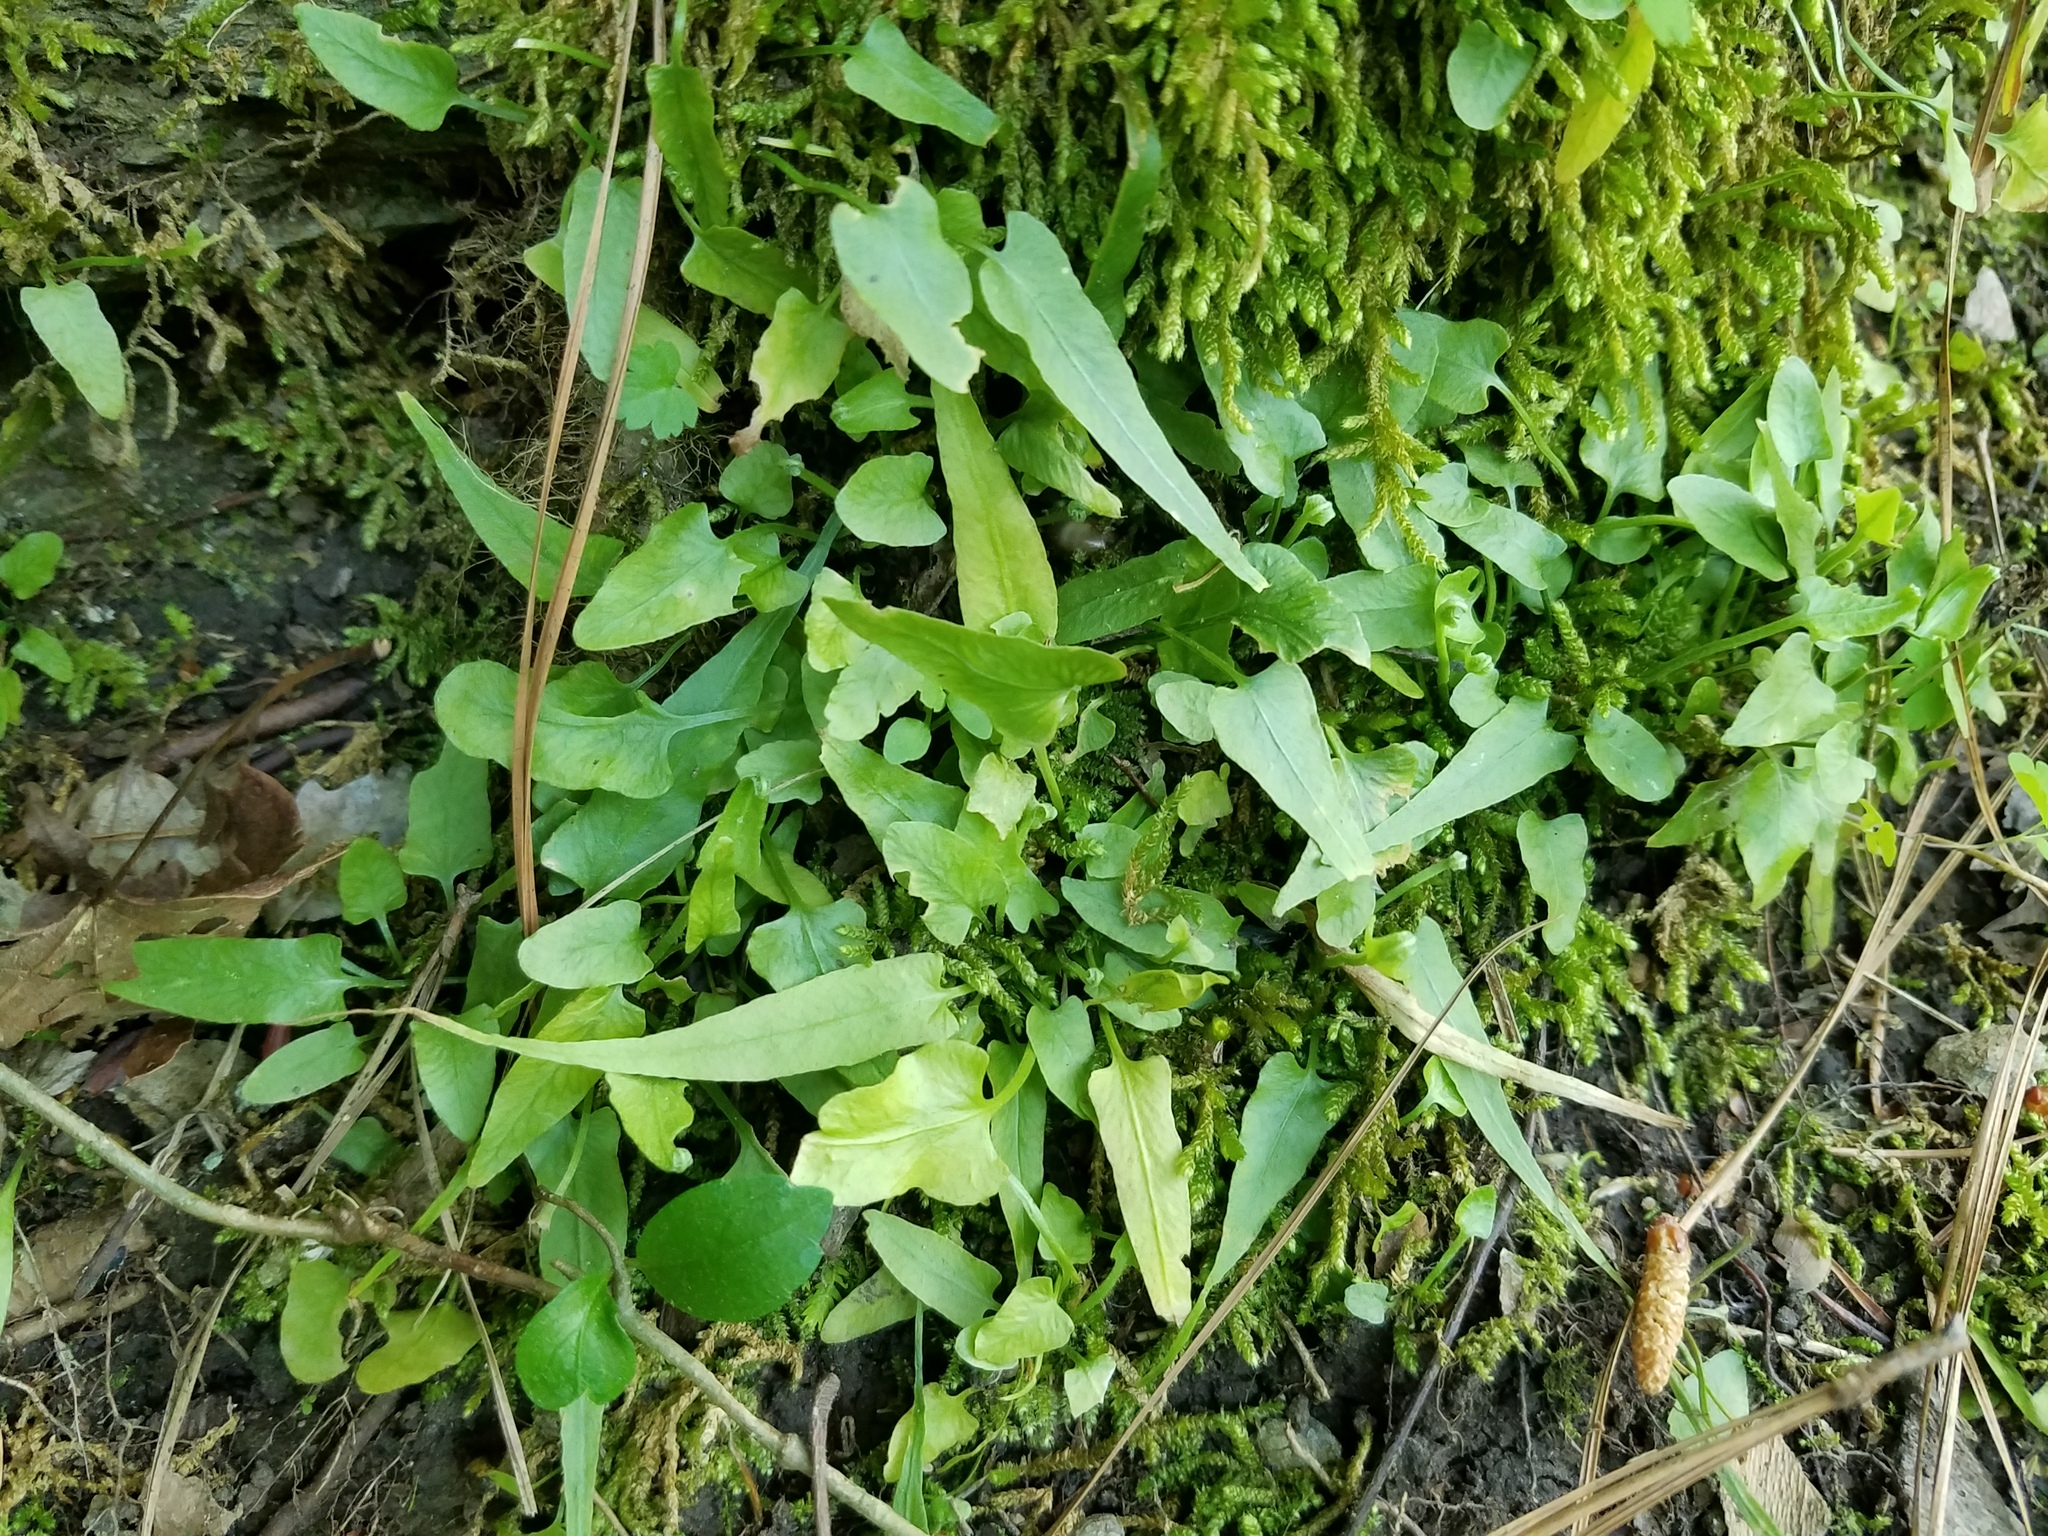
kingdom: Plantae
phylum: Tracheophyta
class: Polypodiopsida
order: Polypodiales
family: Aspleniaceae
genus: Asplenium
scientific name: Asplenium rhizophyllum
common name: Walking fern
